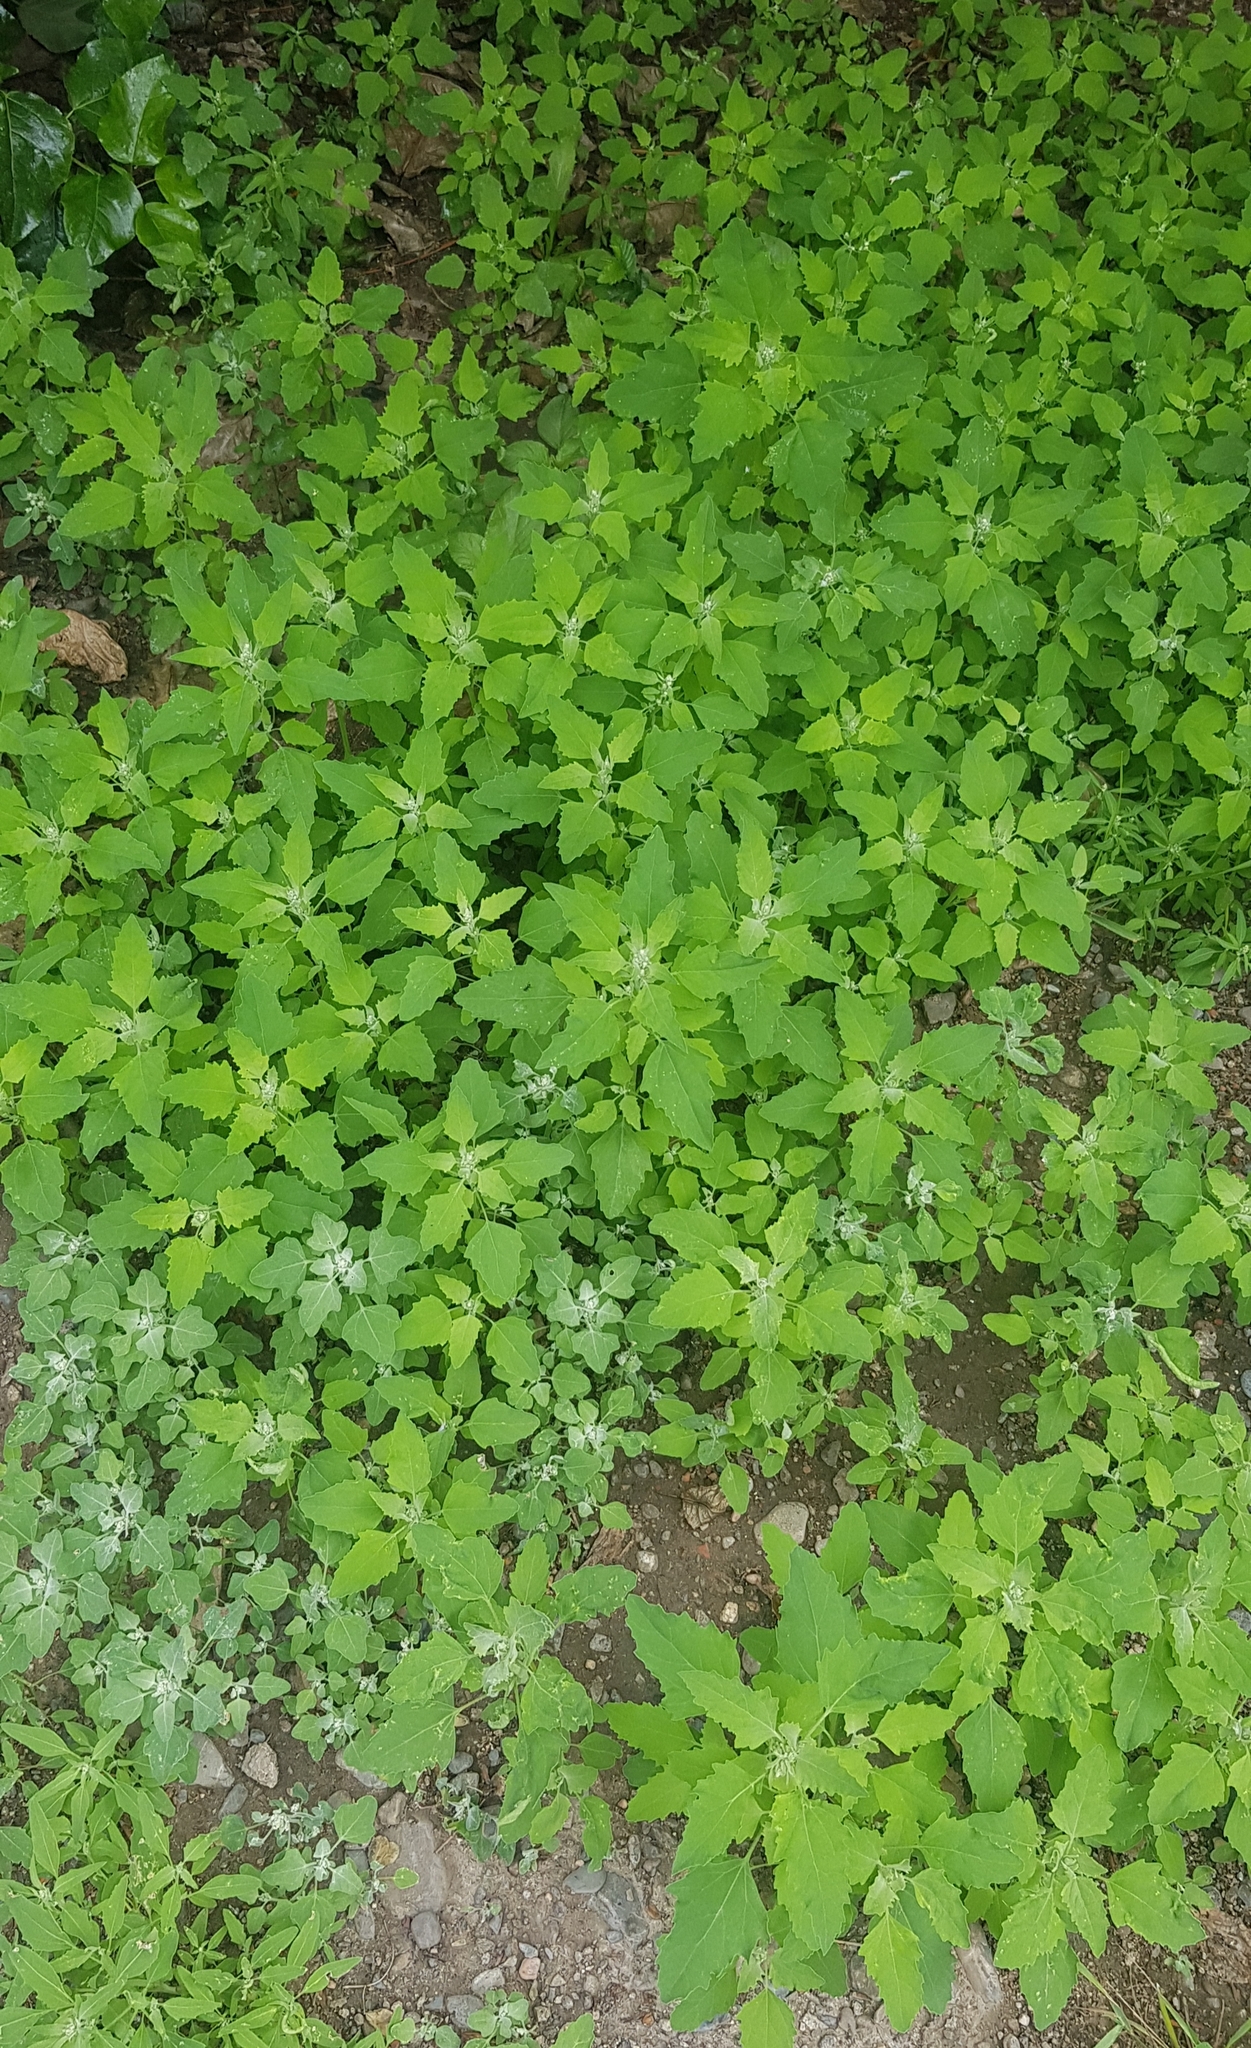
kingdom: Plantae
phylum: Tracheophyta
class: Magnoliopsida
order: Caryophyllales
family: Amaranthaceae
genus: Chenopodium
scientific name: Chenopodium album
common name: Fat-hen
